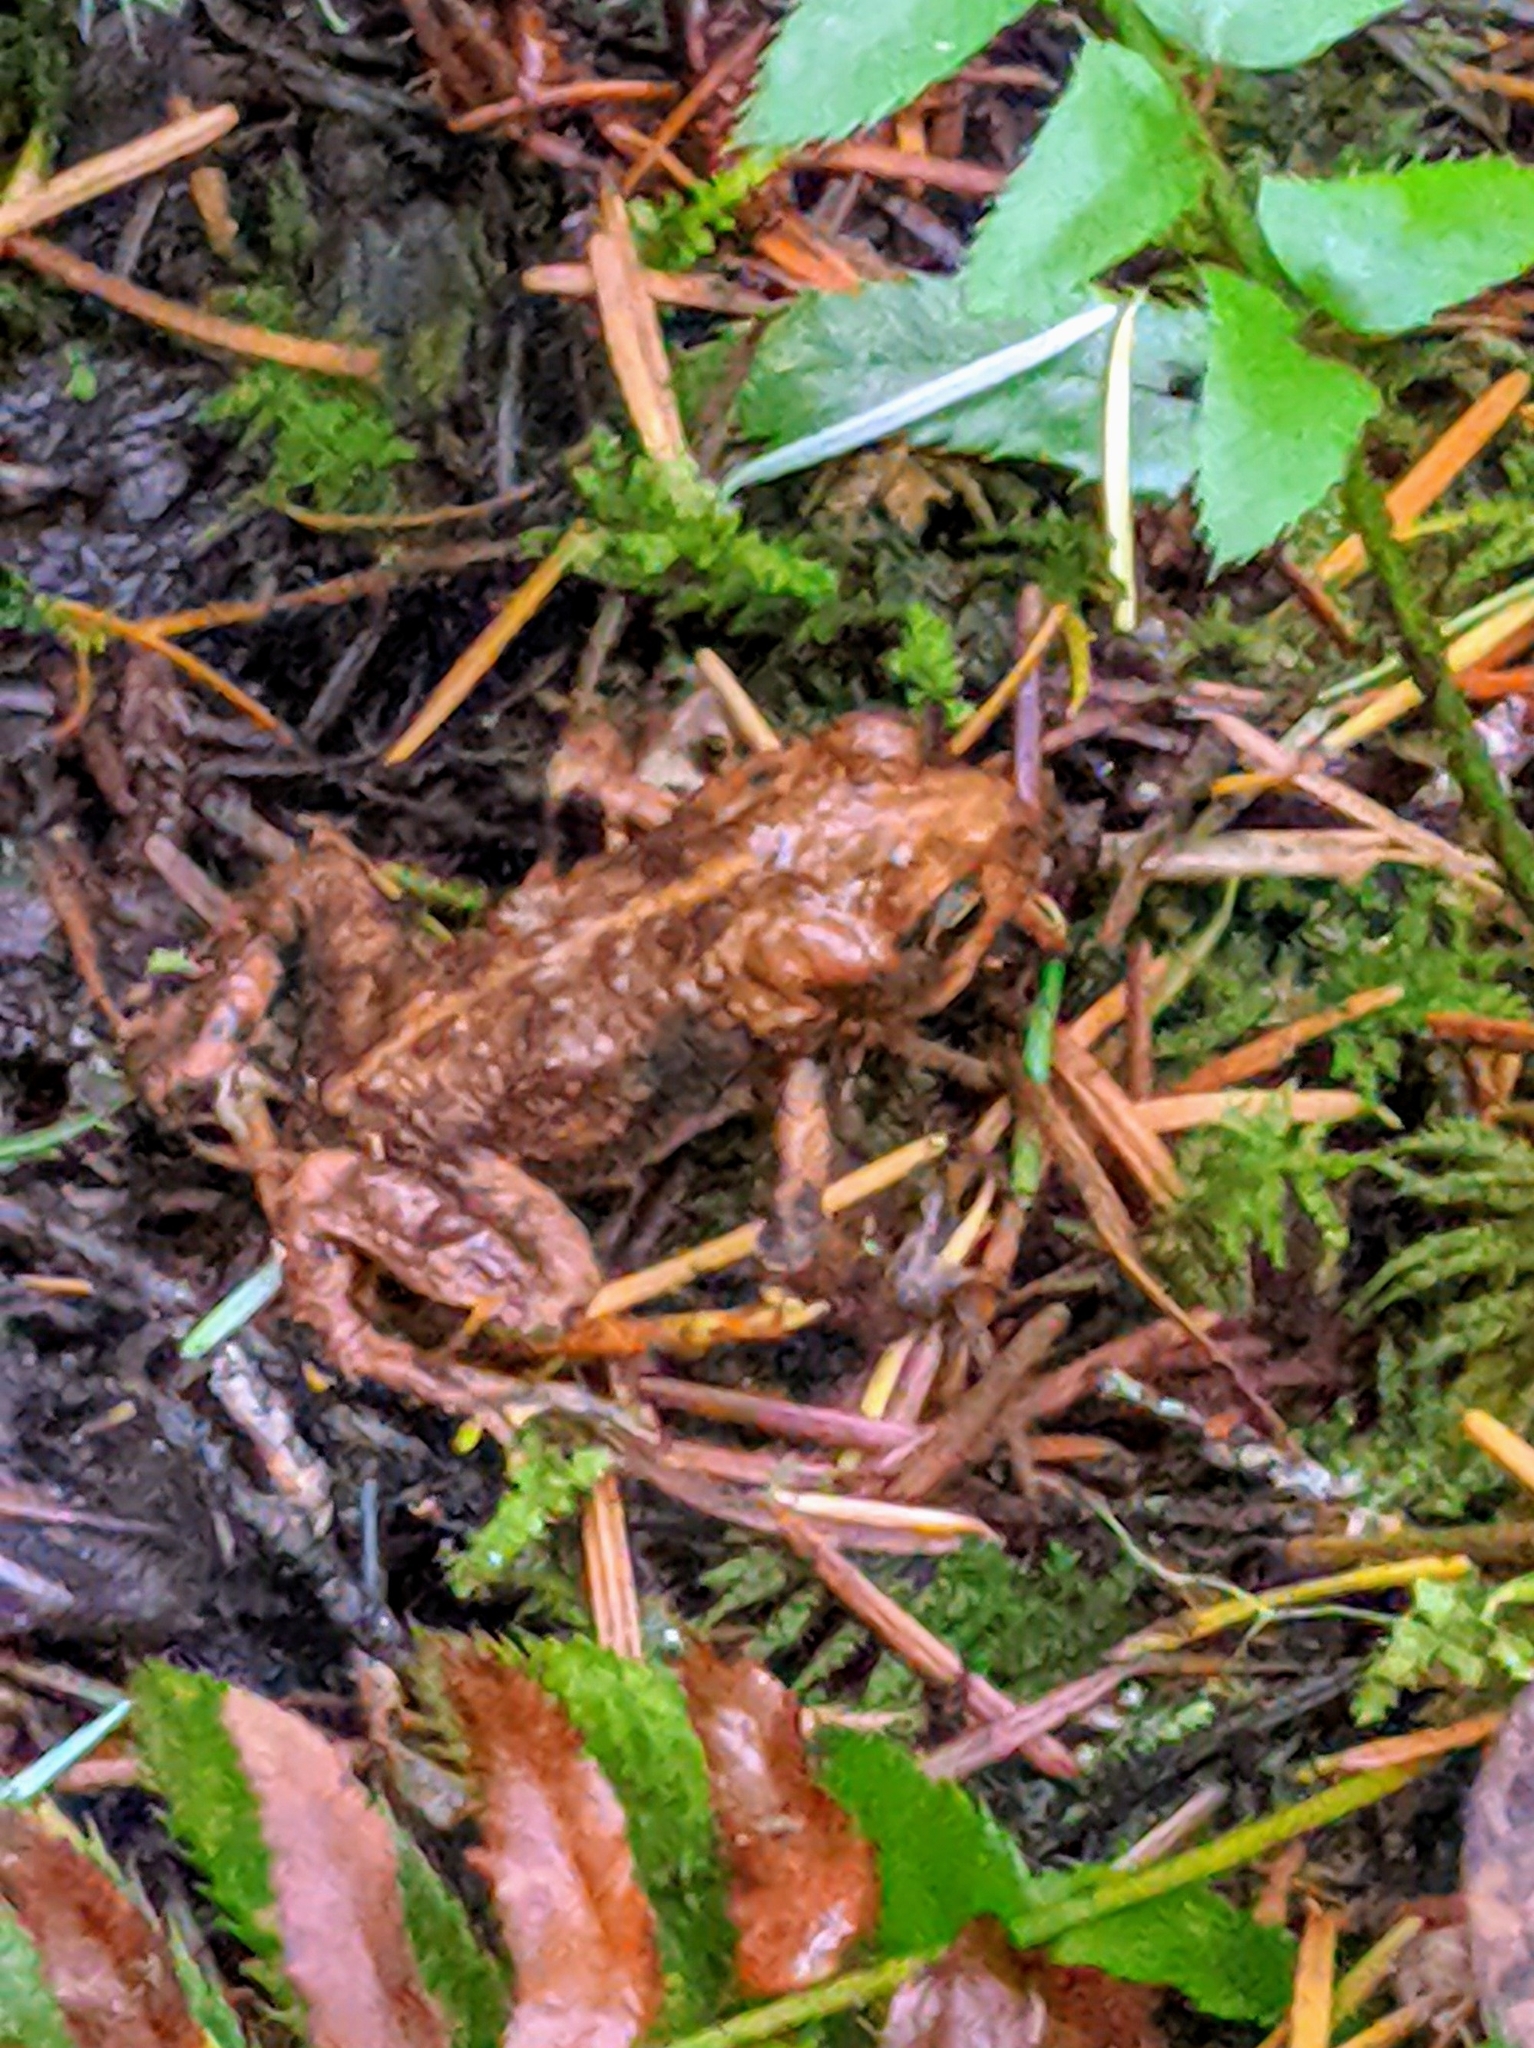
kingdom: Animalia
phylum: Chordata
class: Amphibia
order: Anura
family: Bufonidae
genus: Anaxyrus
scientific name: Anaxyrus boreas
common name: Western toad
